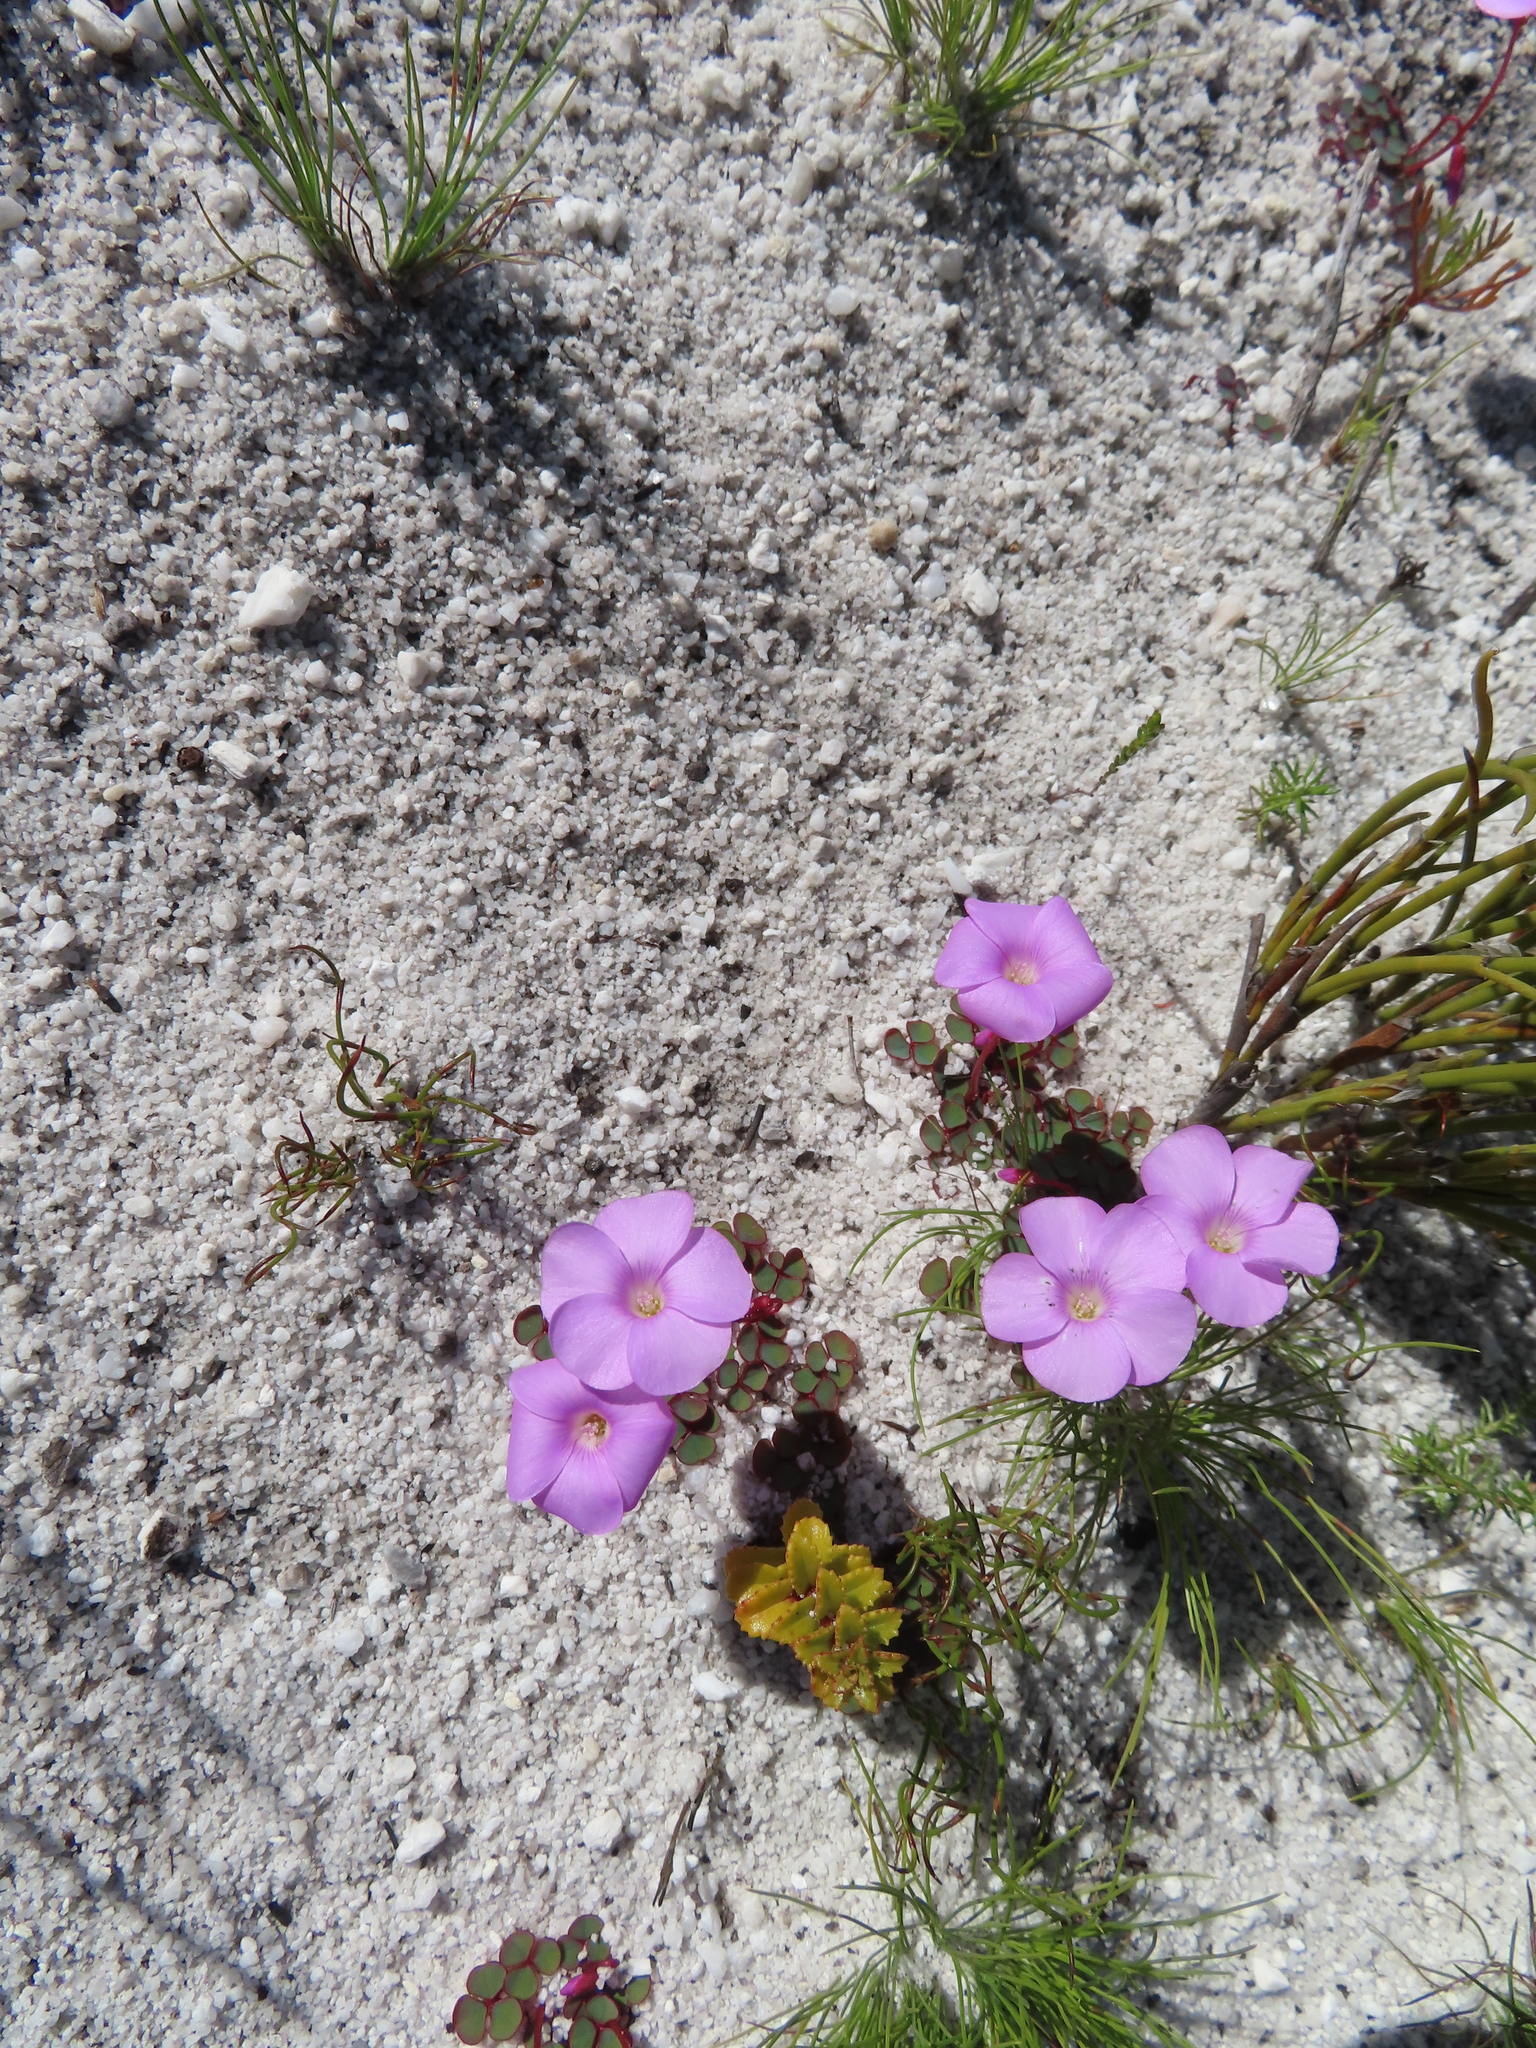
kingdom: Plantae
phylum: Tracheophyta
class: Magnoliopsida
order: Oxalidales
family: Oxalidaceae
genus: Oxalis
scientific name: Oxalis commutata
